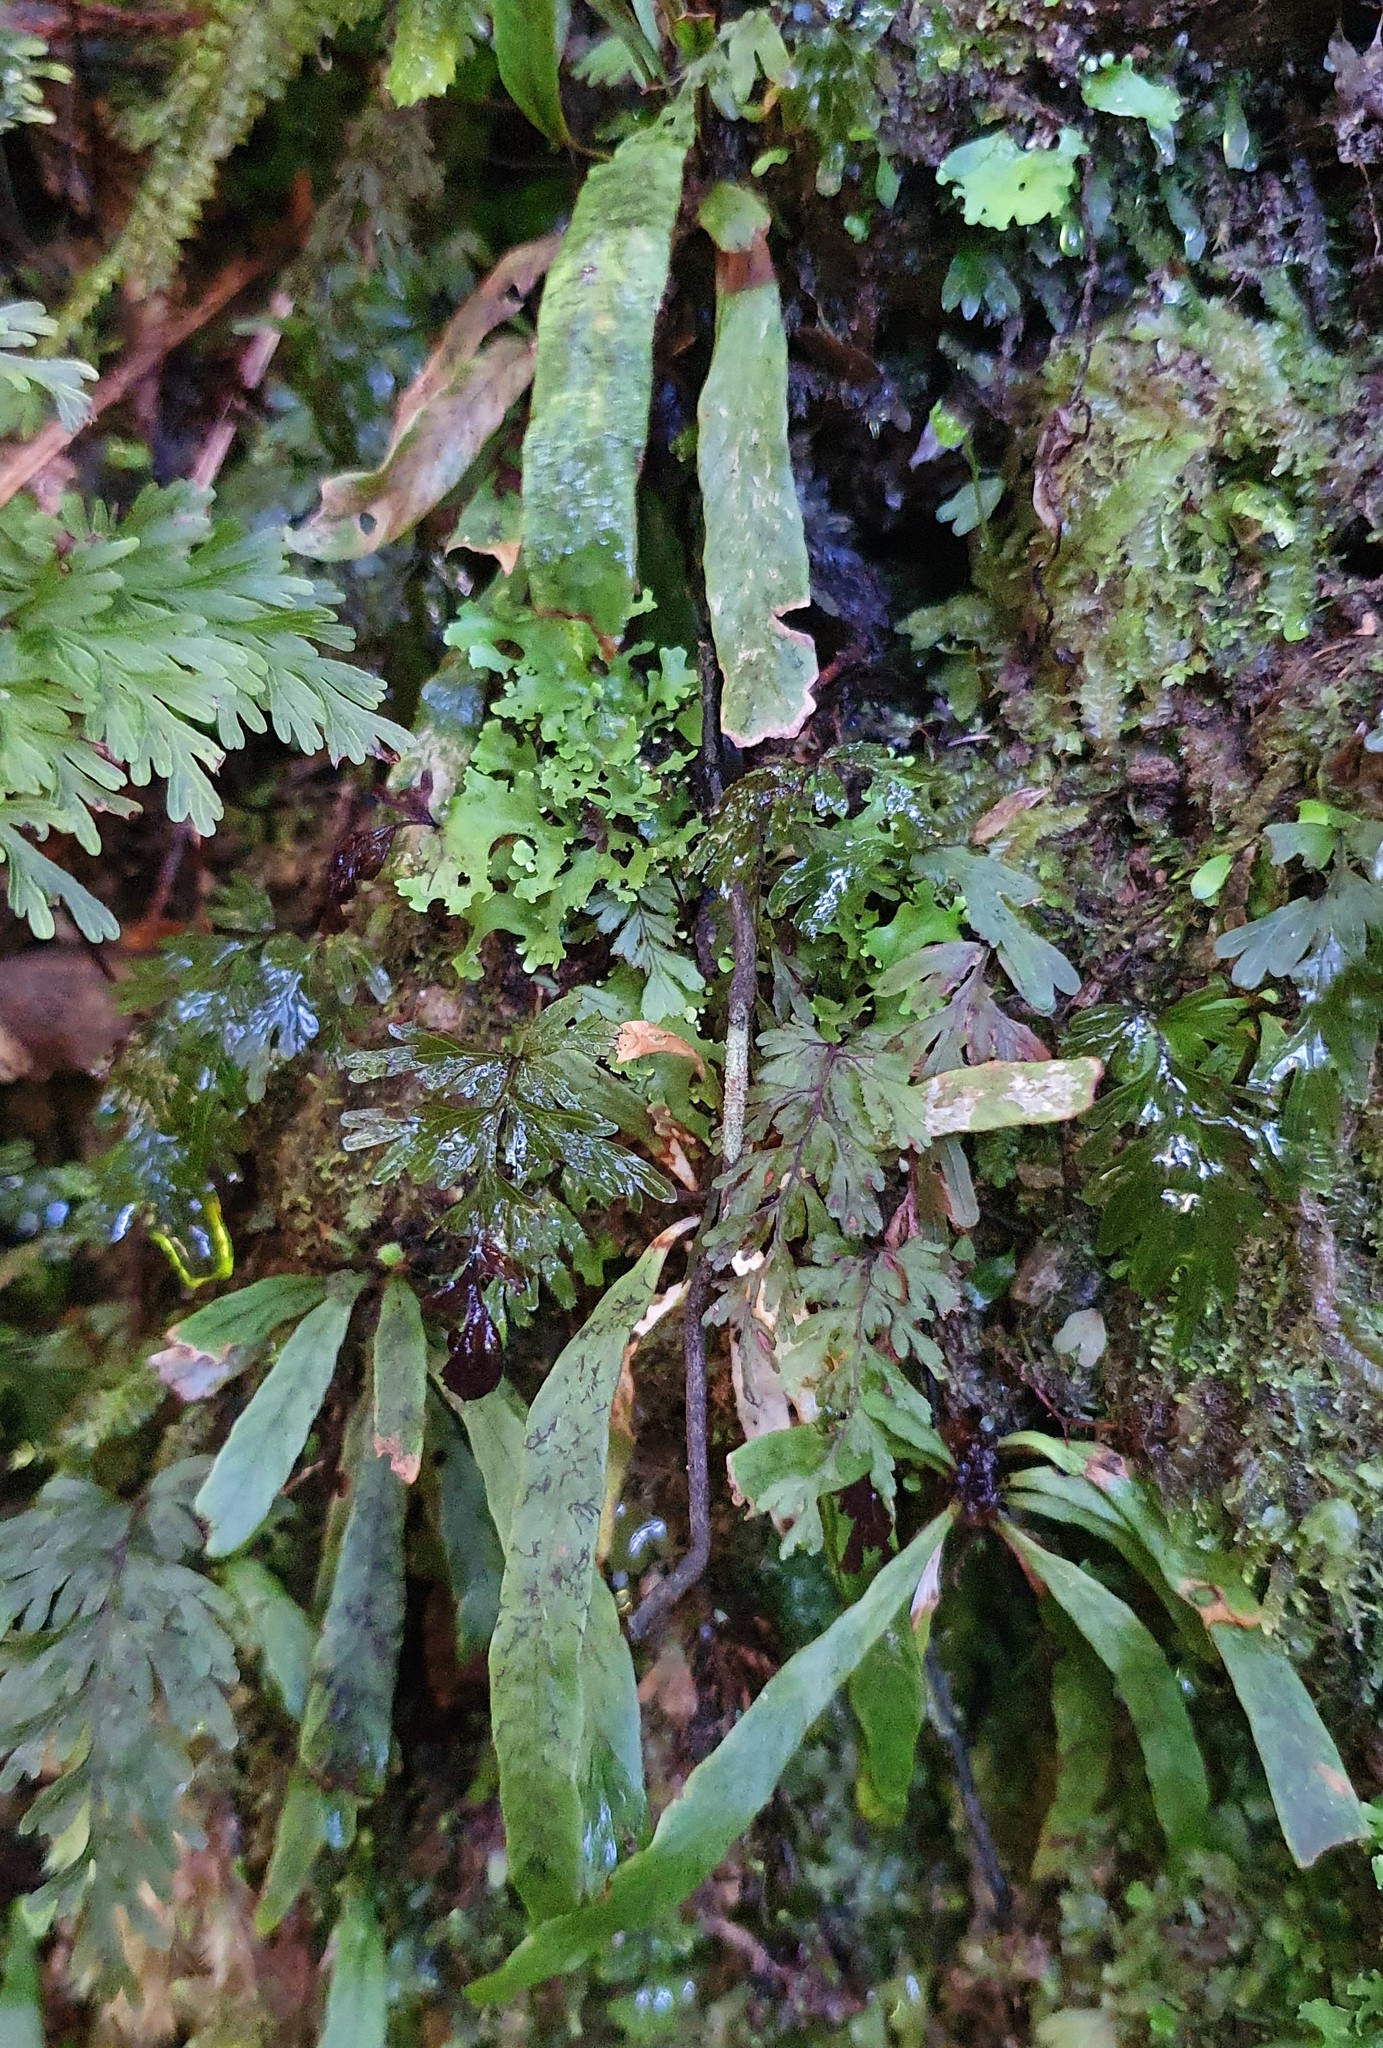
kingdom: Plantae
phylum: Tracheophyta
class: Polypodiopsida
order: Polypodiales
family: Polypodiaceae
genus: Notogrammitis
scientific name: Notogrammitis billardierei
